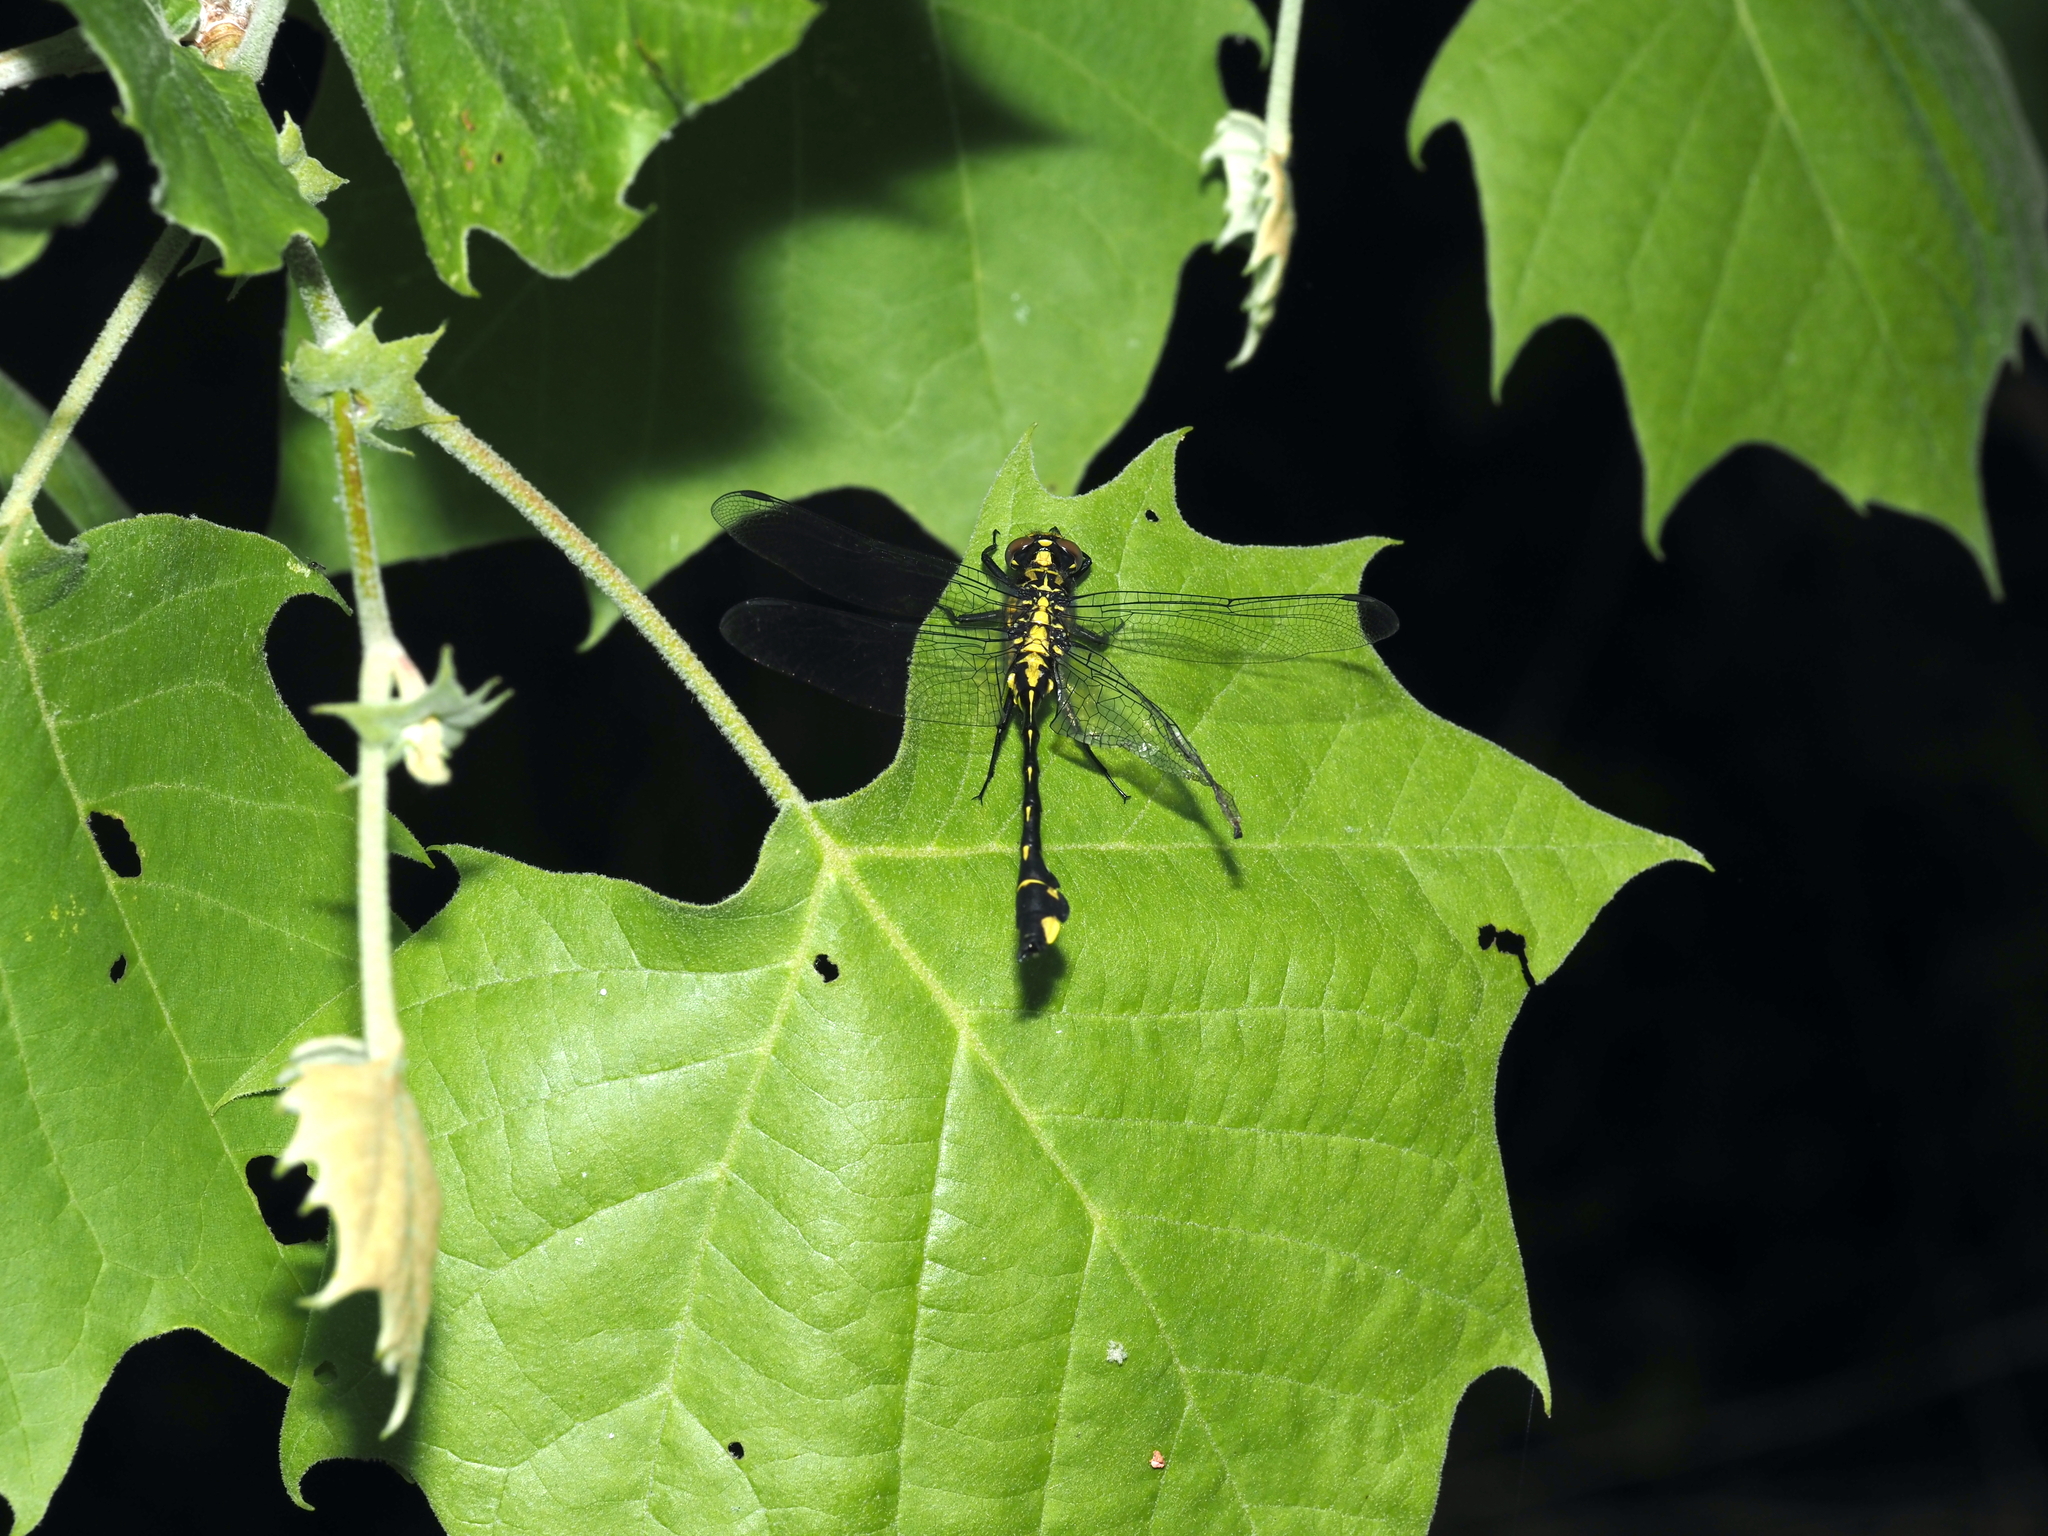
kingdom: Animalia
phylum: Arthropoda
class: Insecta
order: Odonata
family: Gomphidae
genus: Gomphurus
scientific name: Gomphurus vastus
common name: Cobra clubtail
